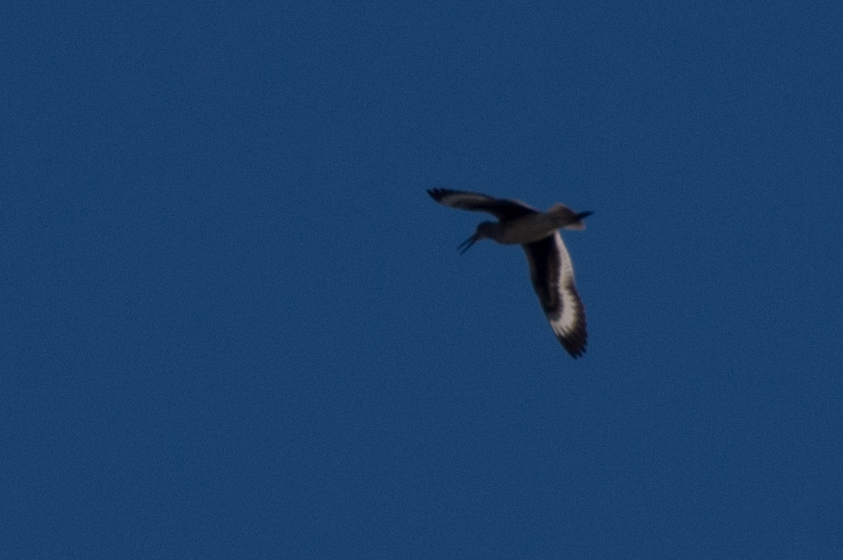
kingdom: Animalia
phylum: Chordata
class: Aves
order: Charadriiformes
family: Scolopacidae
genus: Tringa
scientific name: Tringa semipalmata
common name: Willet
